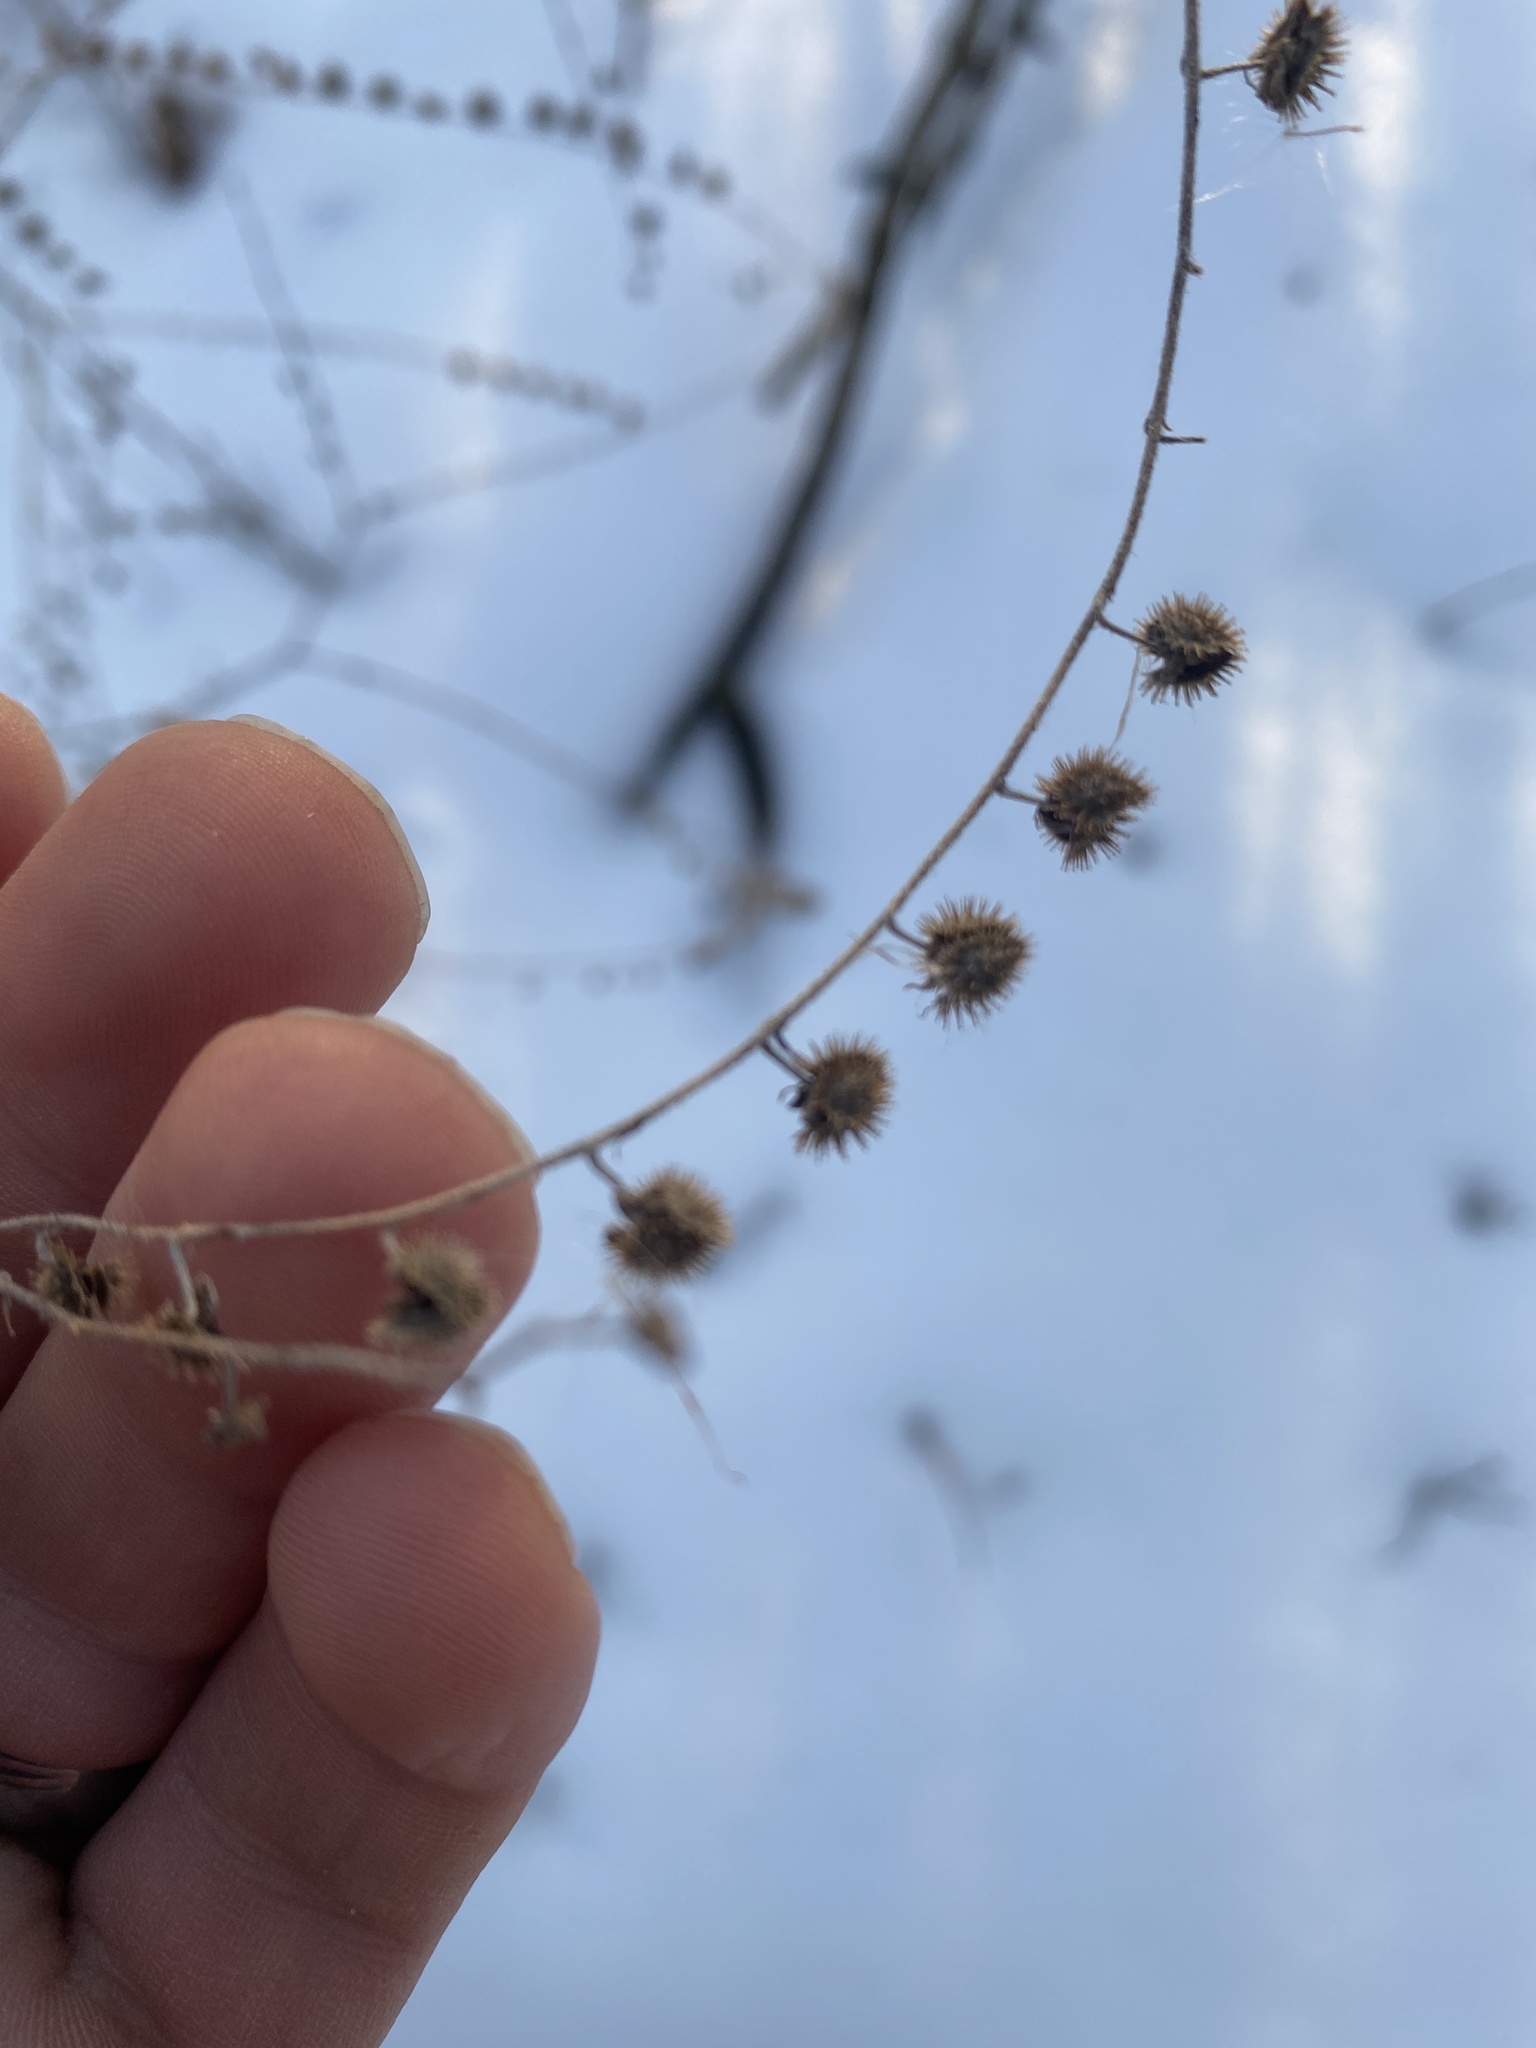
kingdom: Plantae
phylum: Tracheophyta
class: Magnoliopsida
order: Boraginales
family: Boraginaceae
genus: Hackelia
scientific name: Hackelia virginiana
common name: Beggar's-lice
